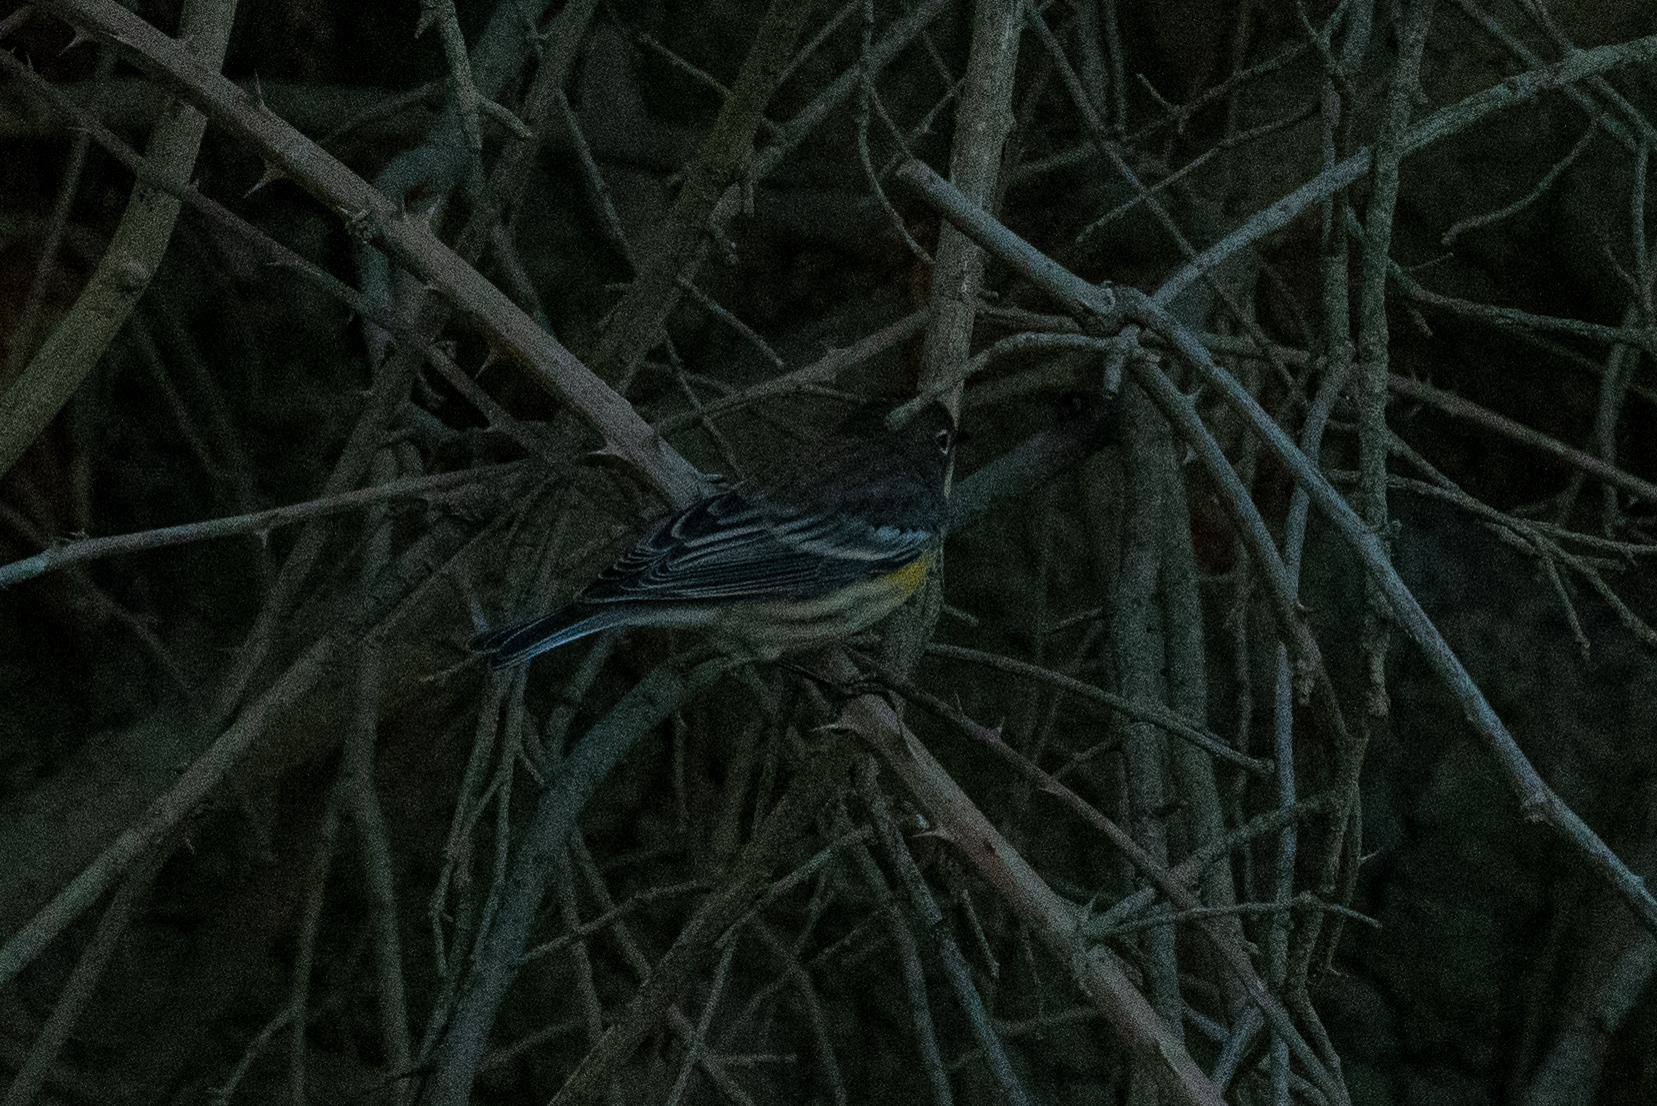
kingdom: Animalia
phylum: Chordata
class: Aves
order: Passeriformes
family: Parulidae
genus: Setophaga
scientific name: Setophaga coronata
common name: Myrtle warbler
